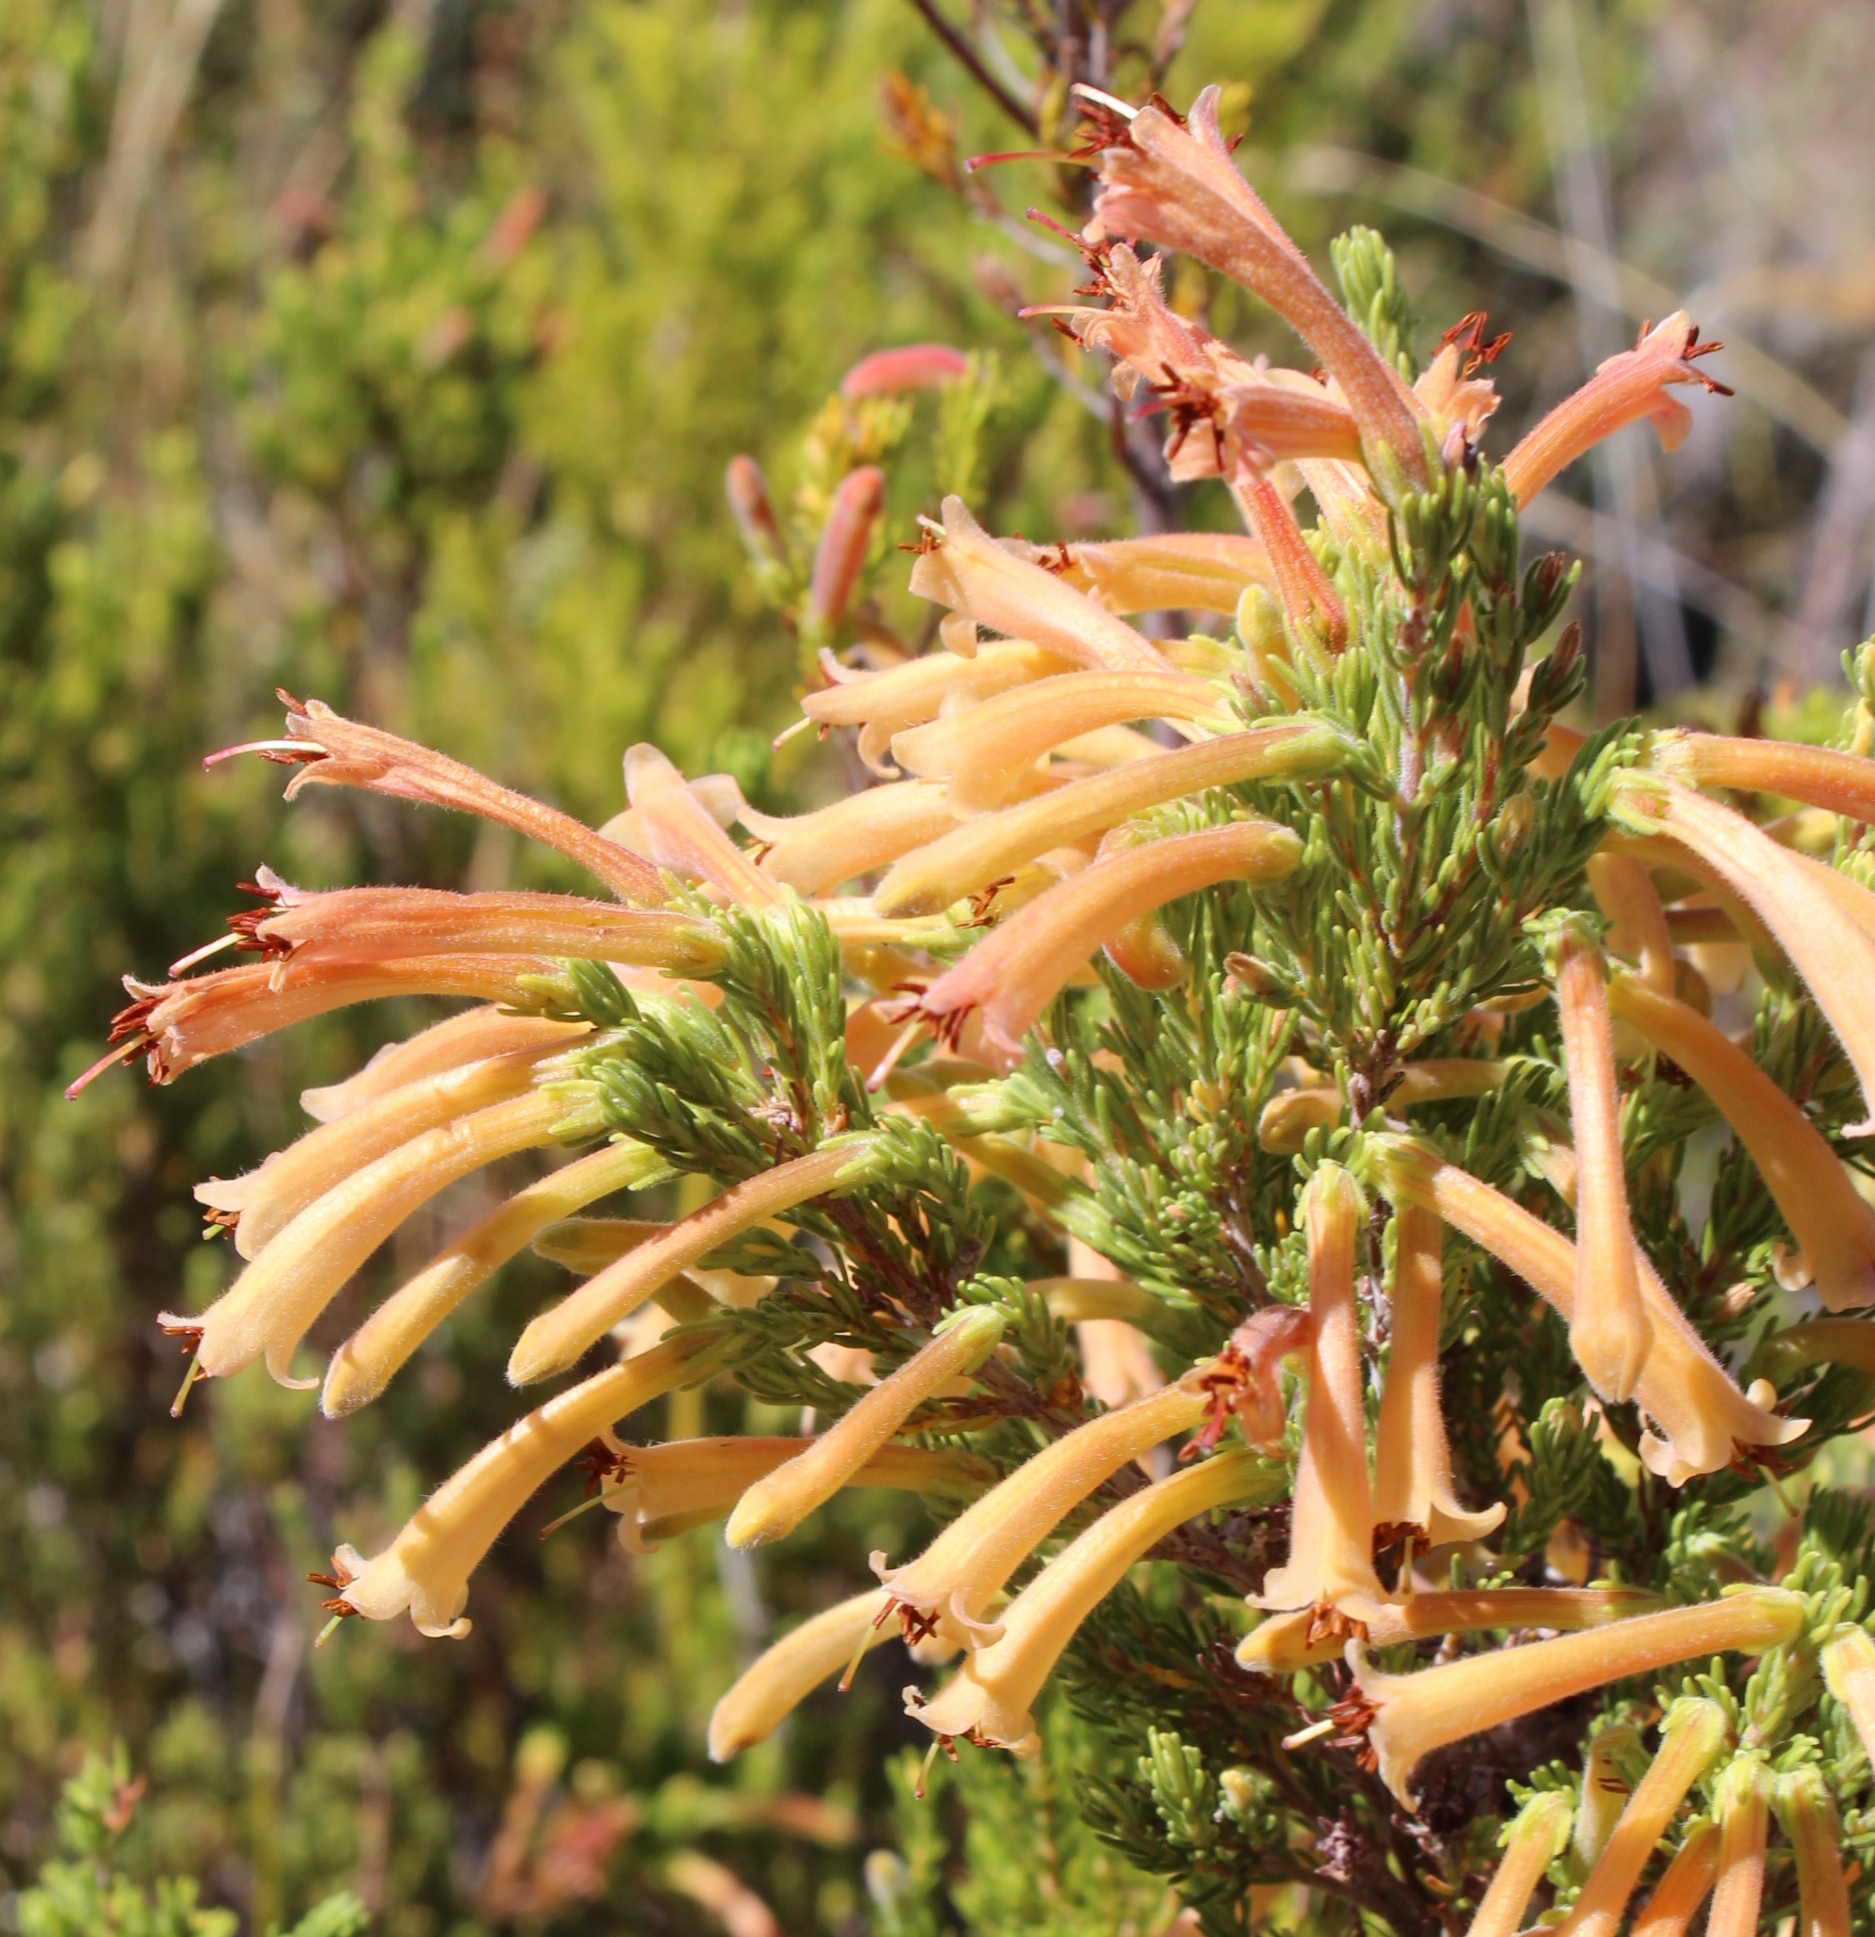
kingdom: Plantae
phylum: Tracheophyta
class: Magnoliopsida
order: Ericales
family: Ericaceae
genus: Erica
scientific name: Erica curviflora
